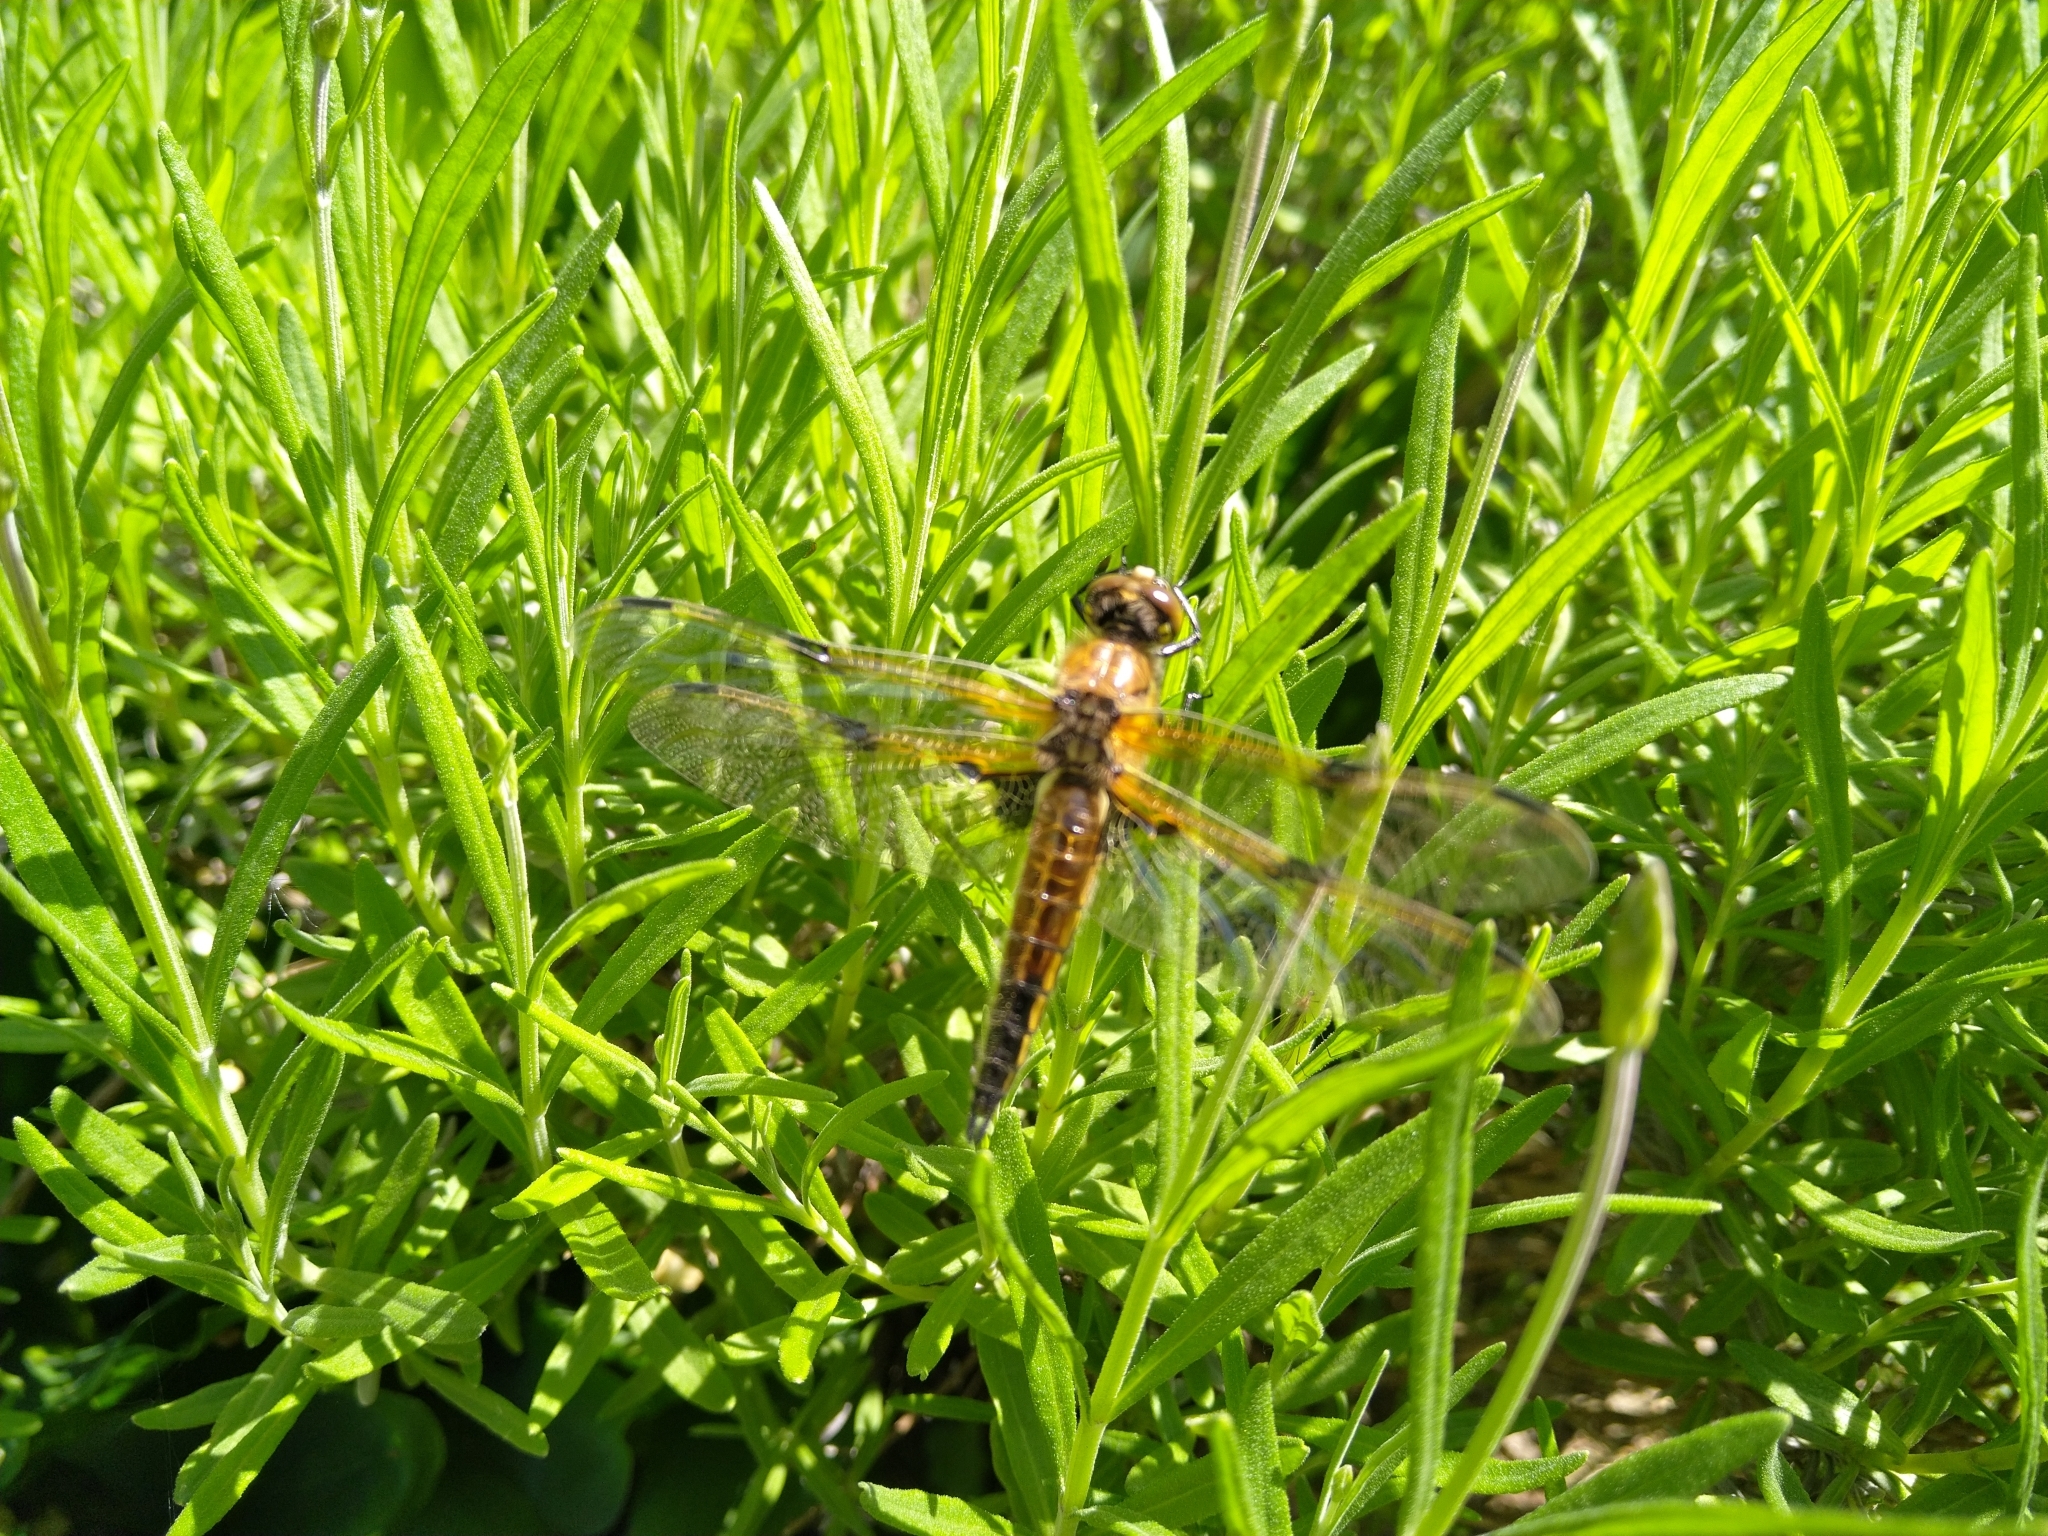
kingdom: Animalia
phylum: Arthropoda
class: Insecta
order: Odonata
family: Libellulidae
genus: Libellula
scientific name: Libellula quadrimaculata
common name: Four-spotted chaser
